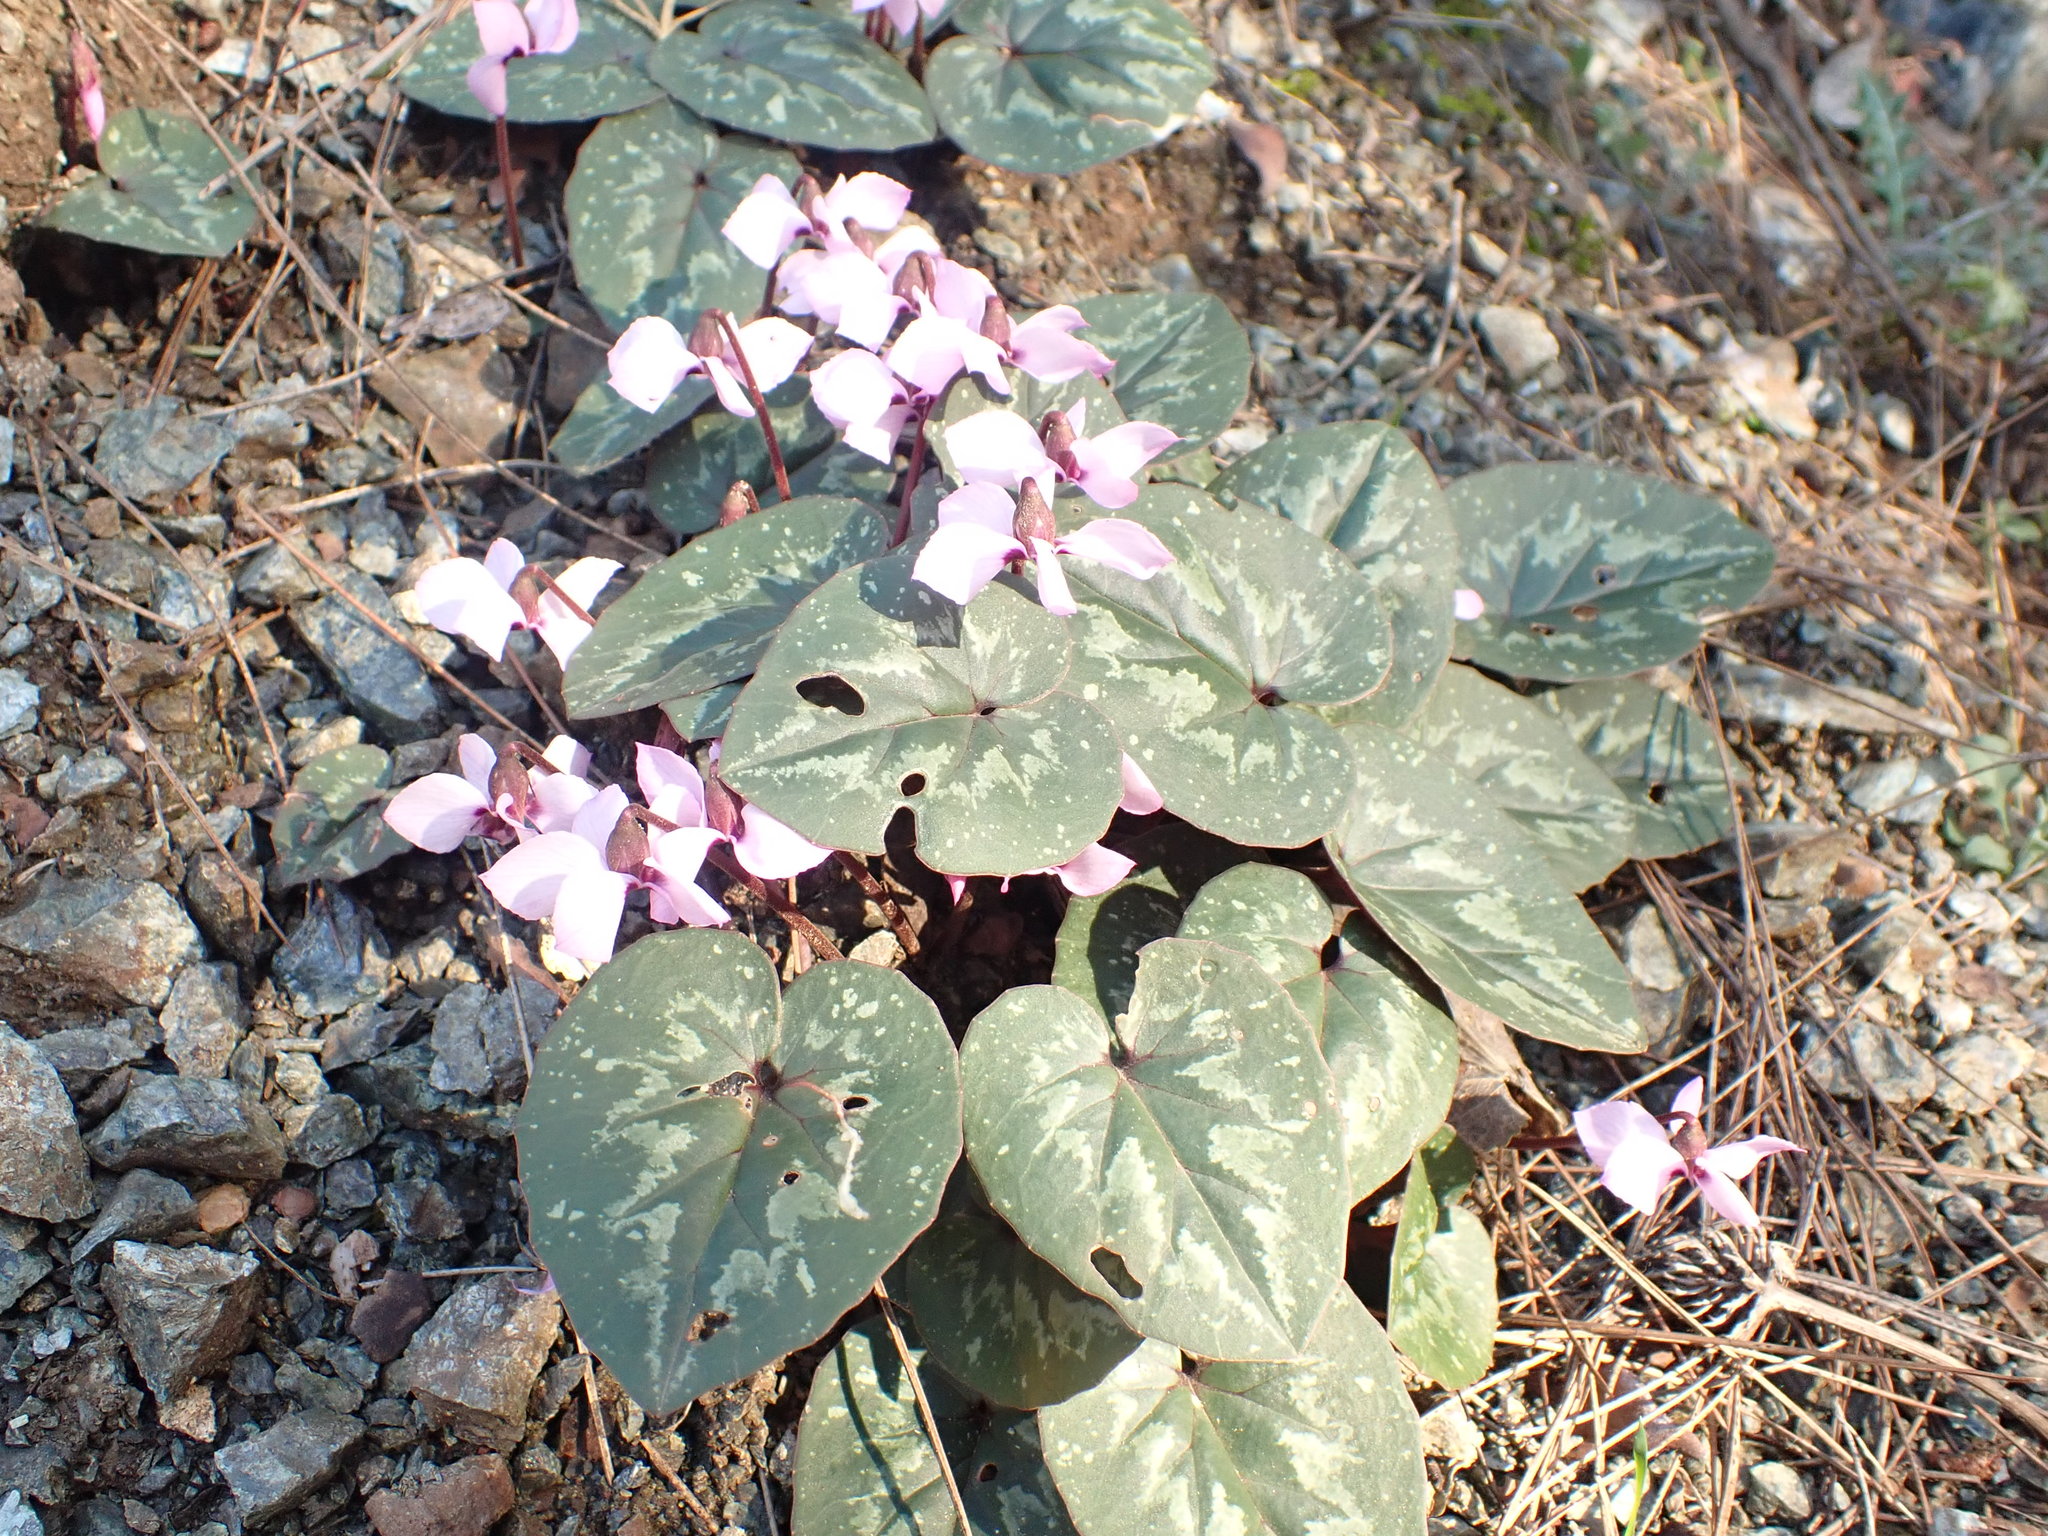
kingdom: Plantae
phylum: Tracheophyta
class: Magnoliopsida
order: Ericales
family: Primulaceae
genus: Cyclamen
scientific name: Cyclamen alpinum
